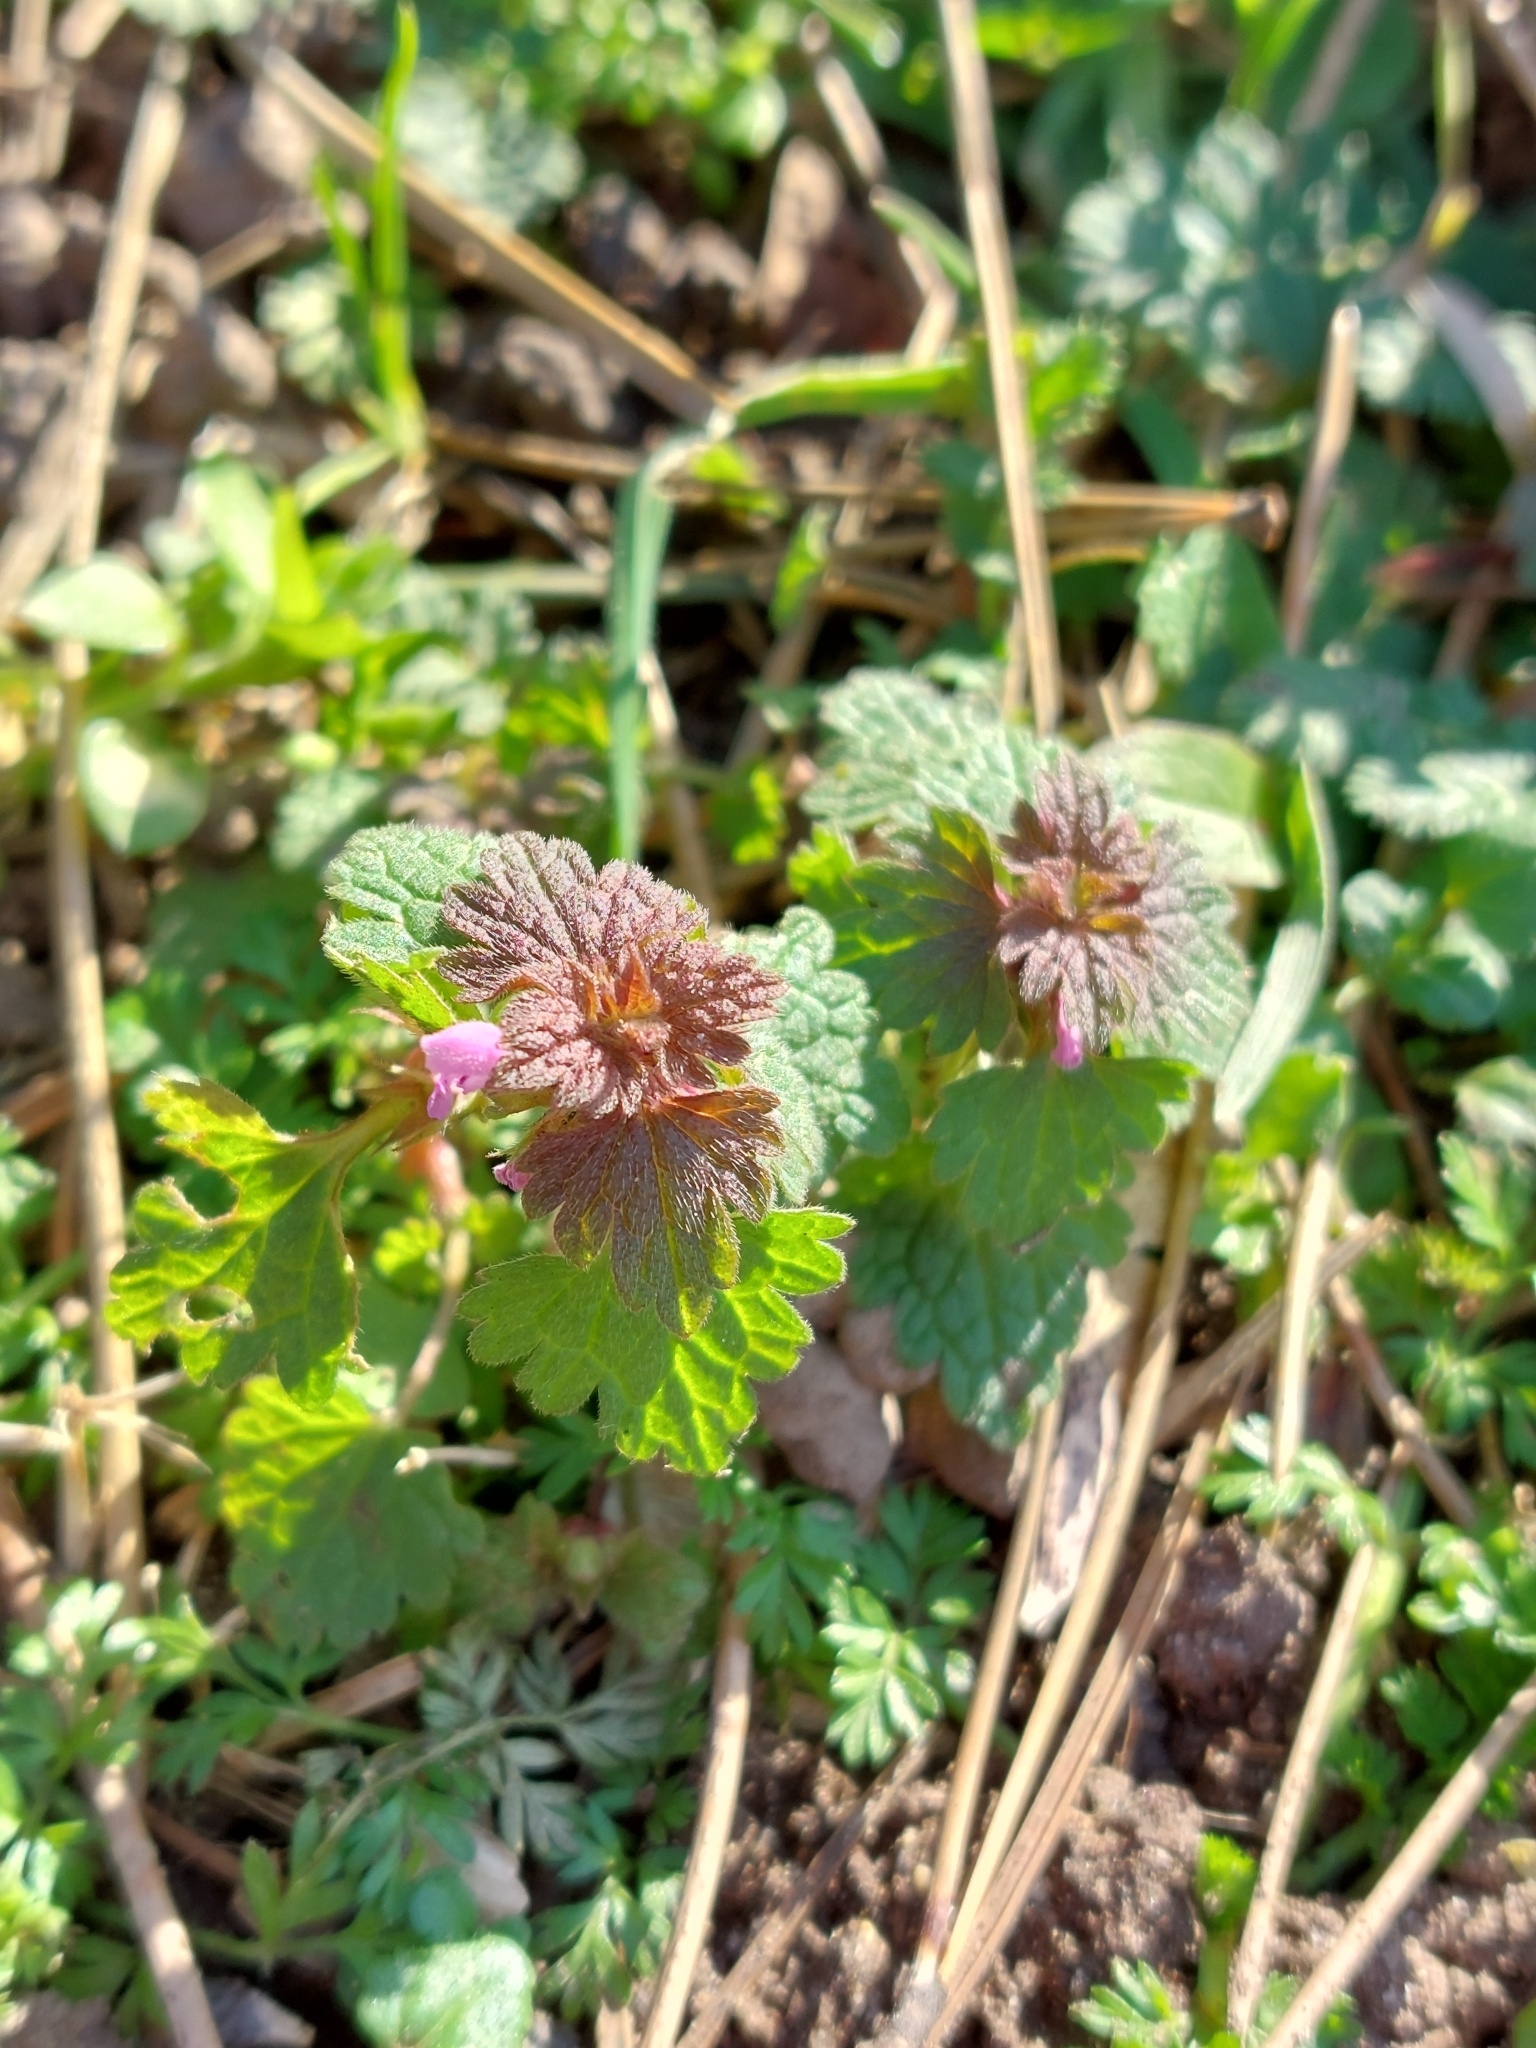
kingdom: Plantae
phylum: Tracheophyta
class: Magnoliopsida
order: Lamiales
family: Lamiaceae
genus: Lamium
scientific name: Lamium hybridum
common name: Cut-leaved dead-nettle
